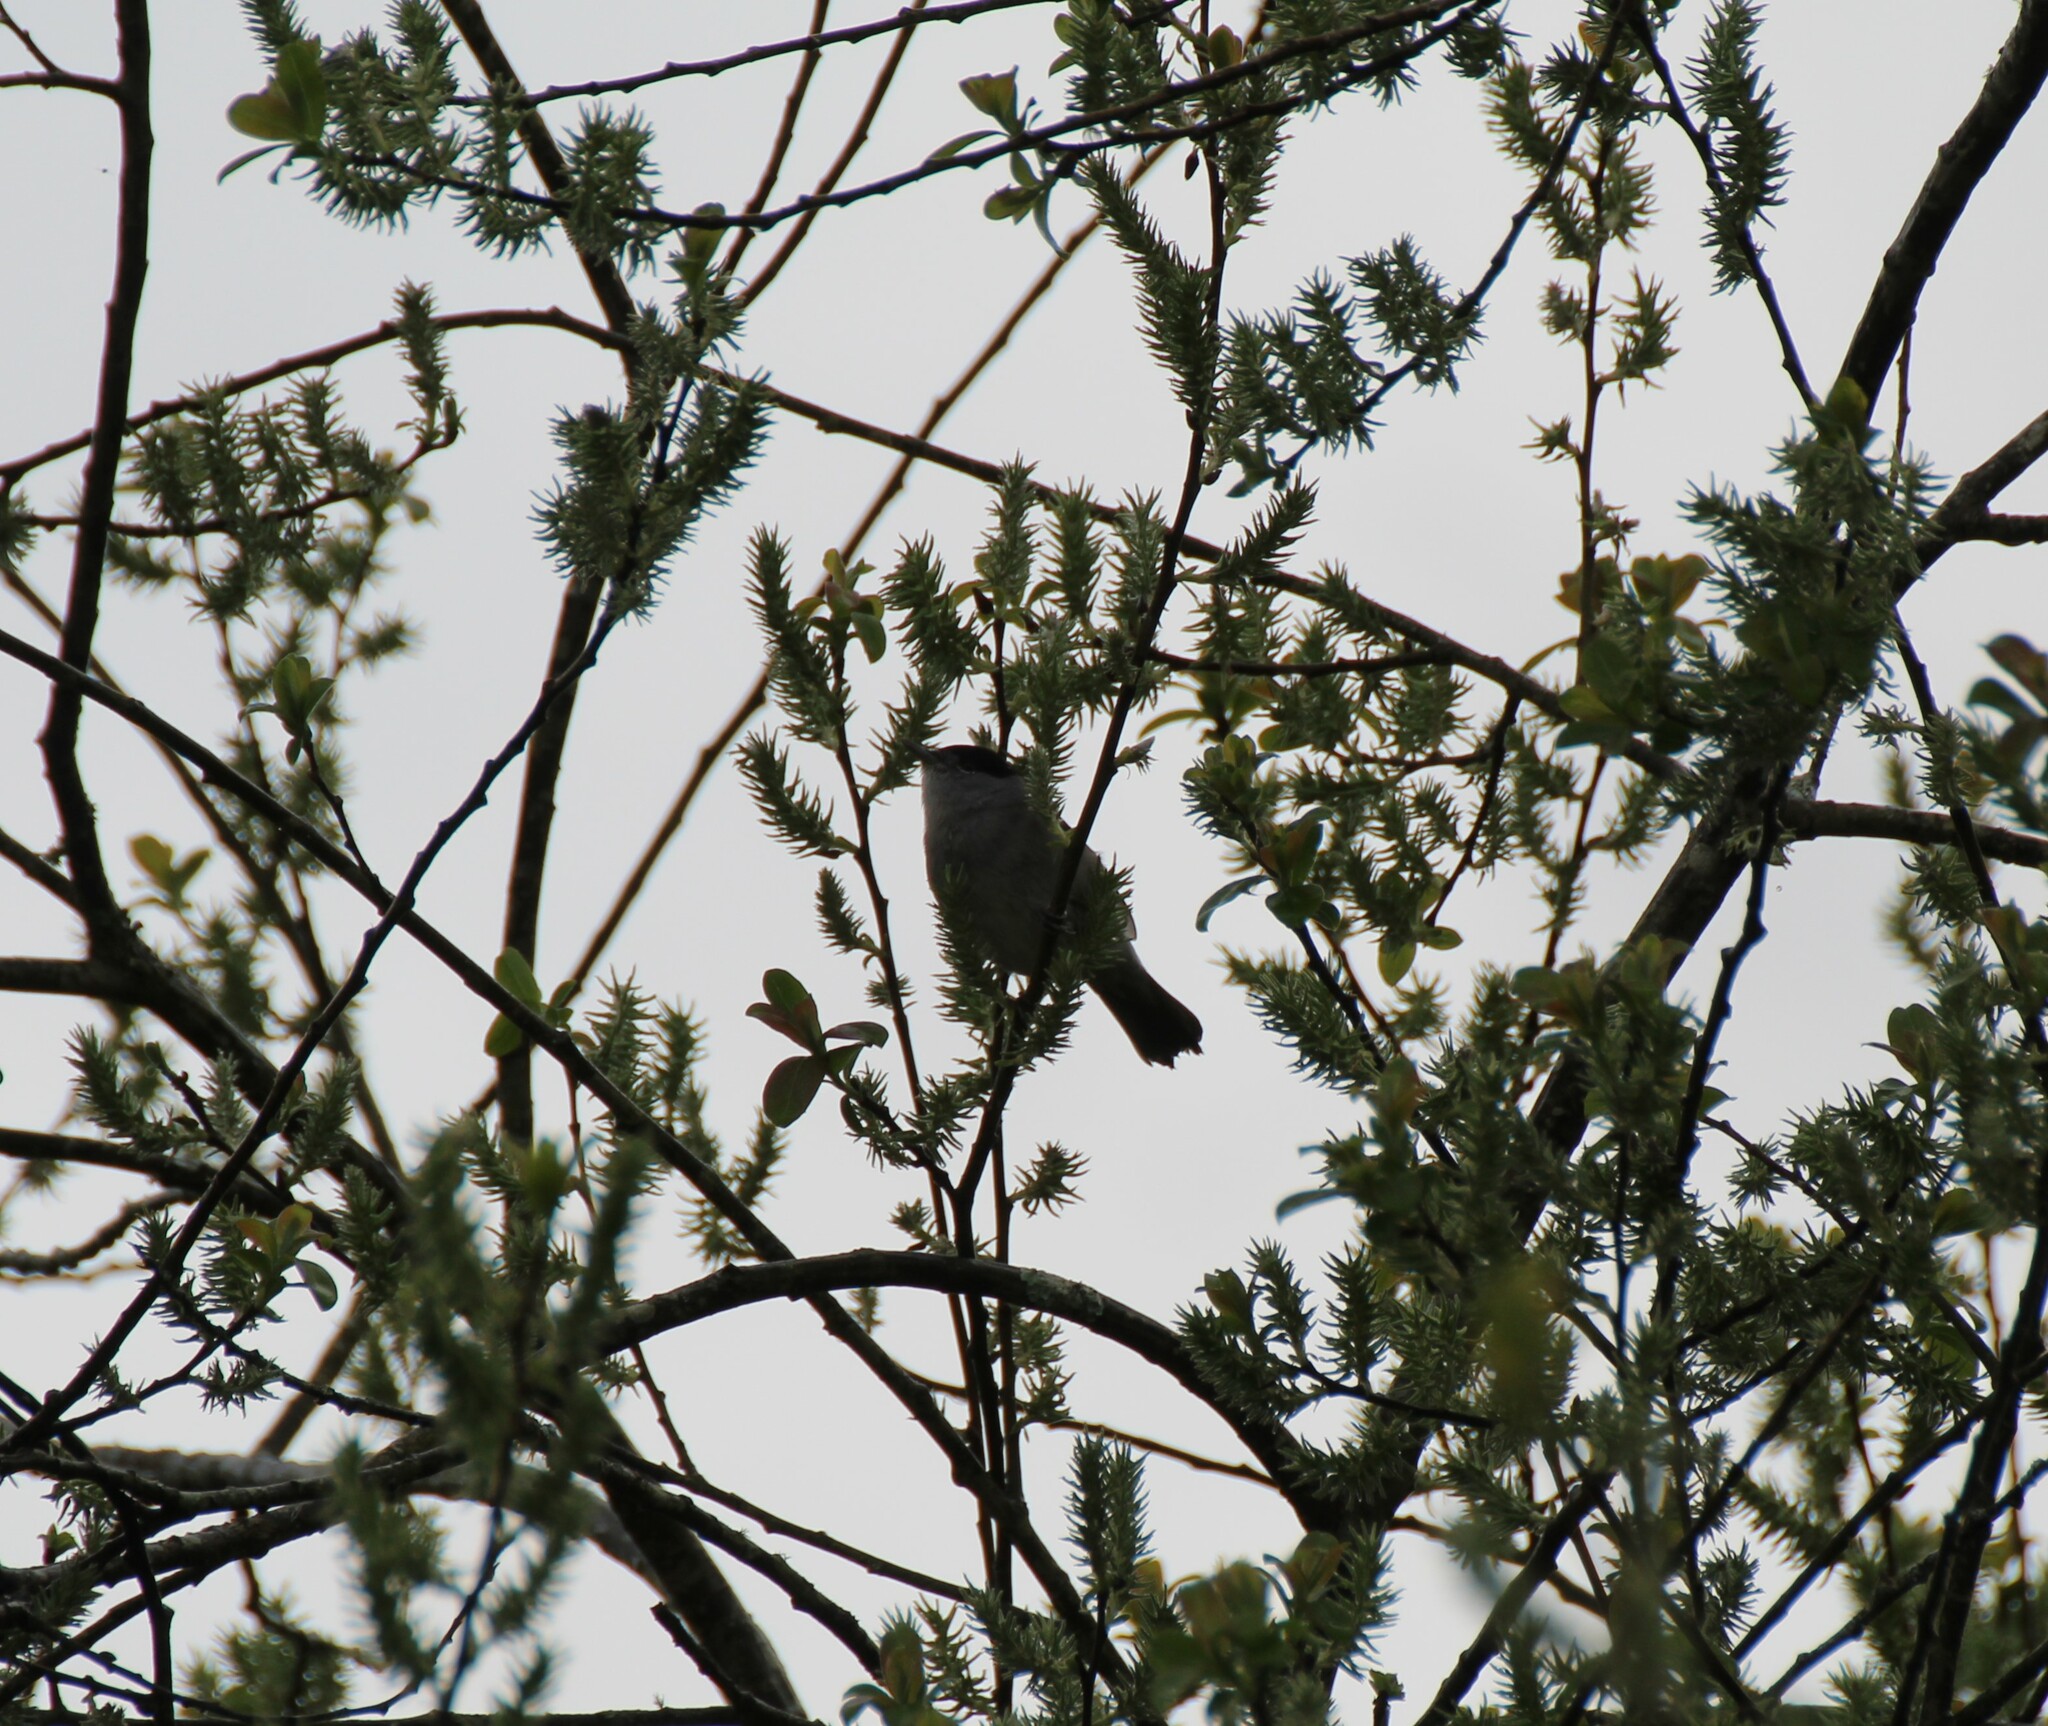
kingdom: Animalia
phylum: Chordata
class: Aves
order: Passeriformes
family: Sylviidae
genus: Sylvia
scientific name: Sylvia atricapilla
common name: Eurasian blackcap
